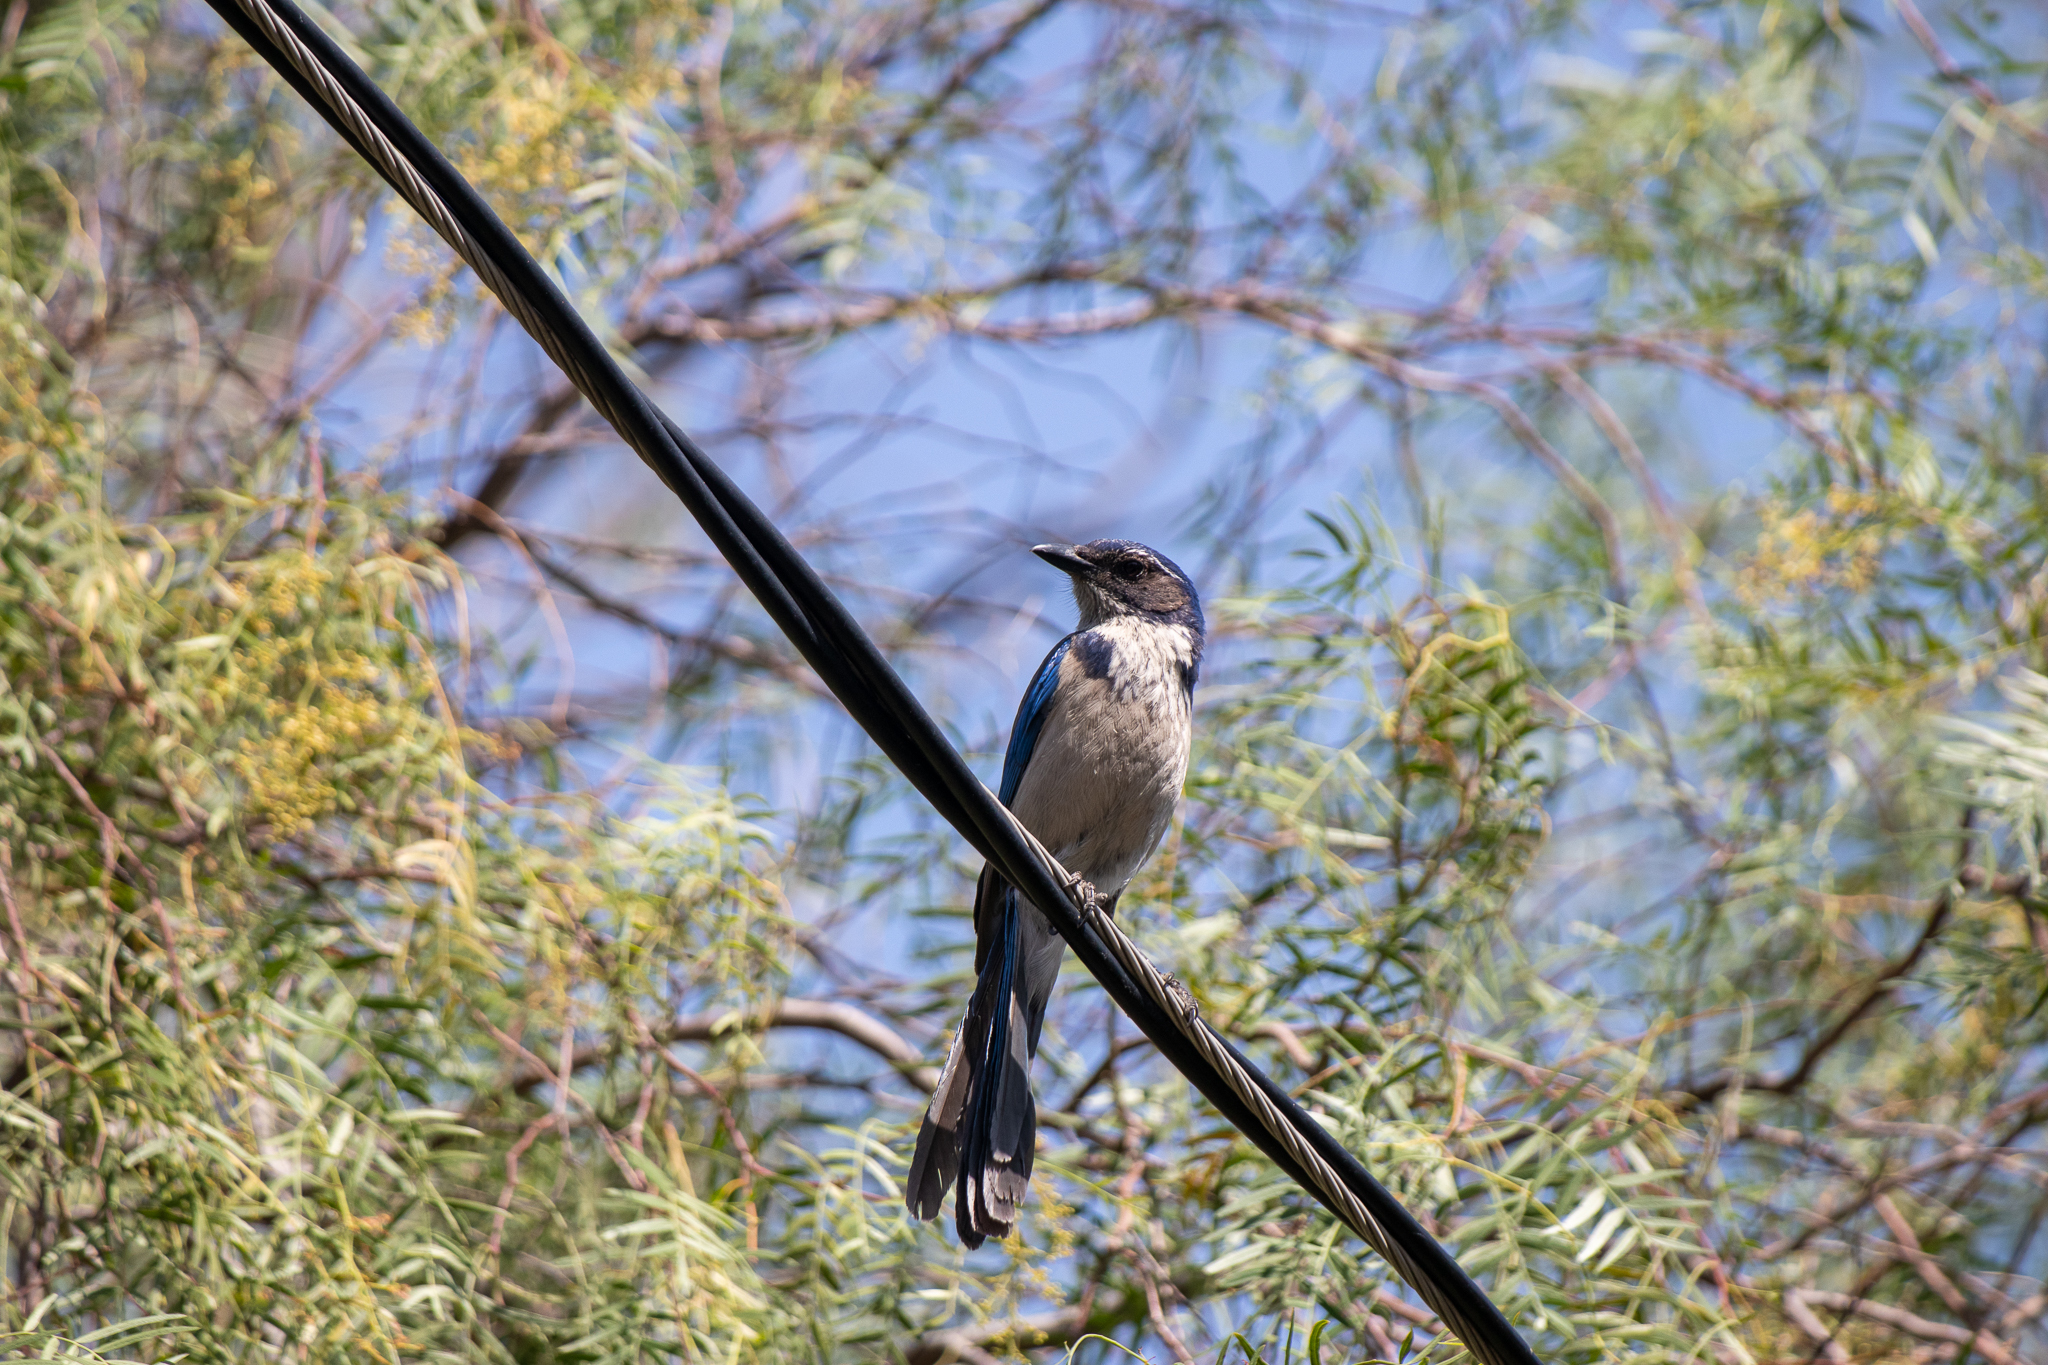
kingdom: Animalia
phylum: Chordata
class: Aves
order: Passeriformes
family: Corvidae
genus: Aphelocoma
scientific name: Aphelocoma californica
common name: California scrub-jay
